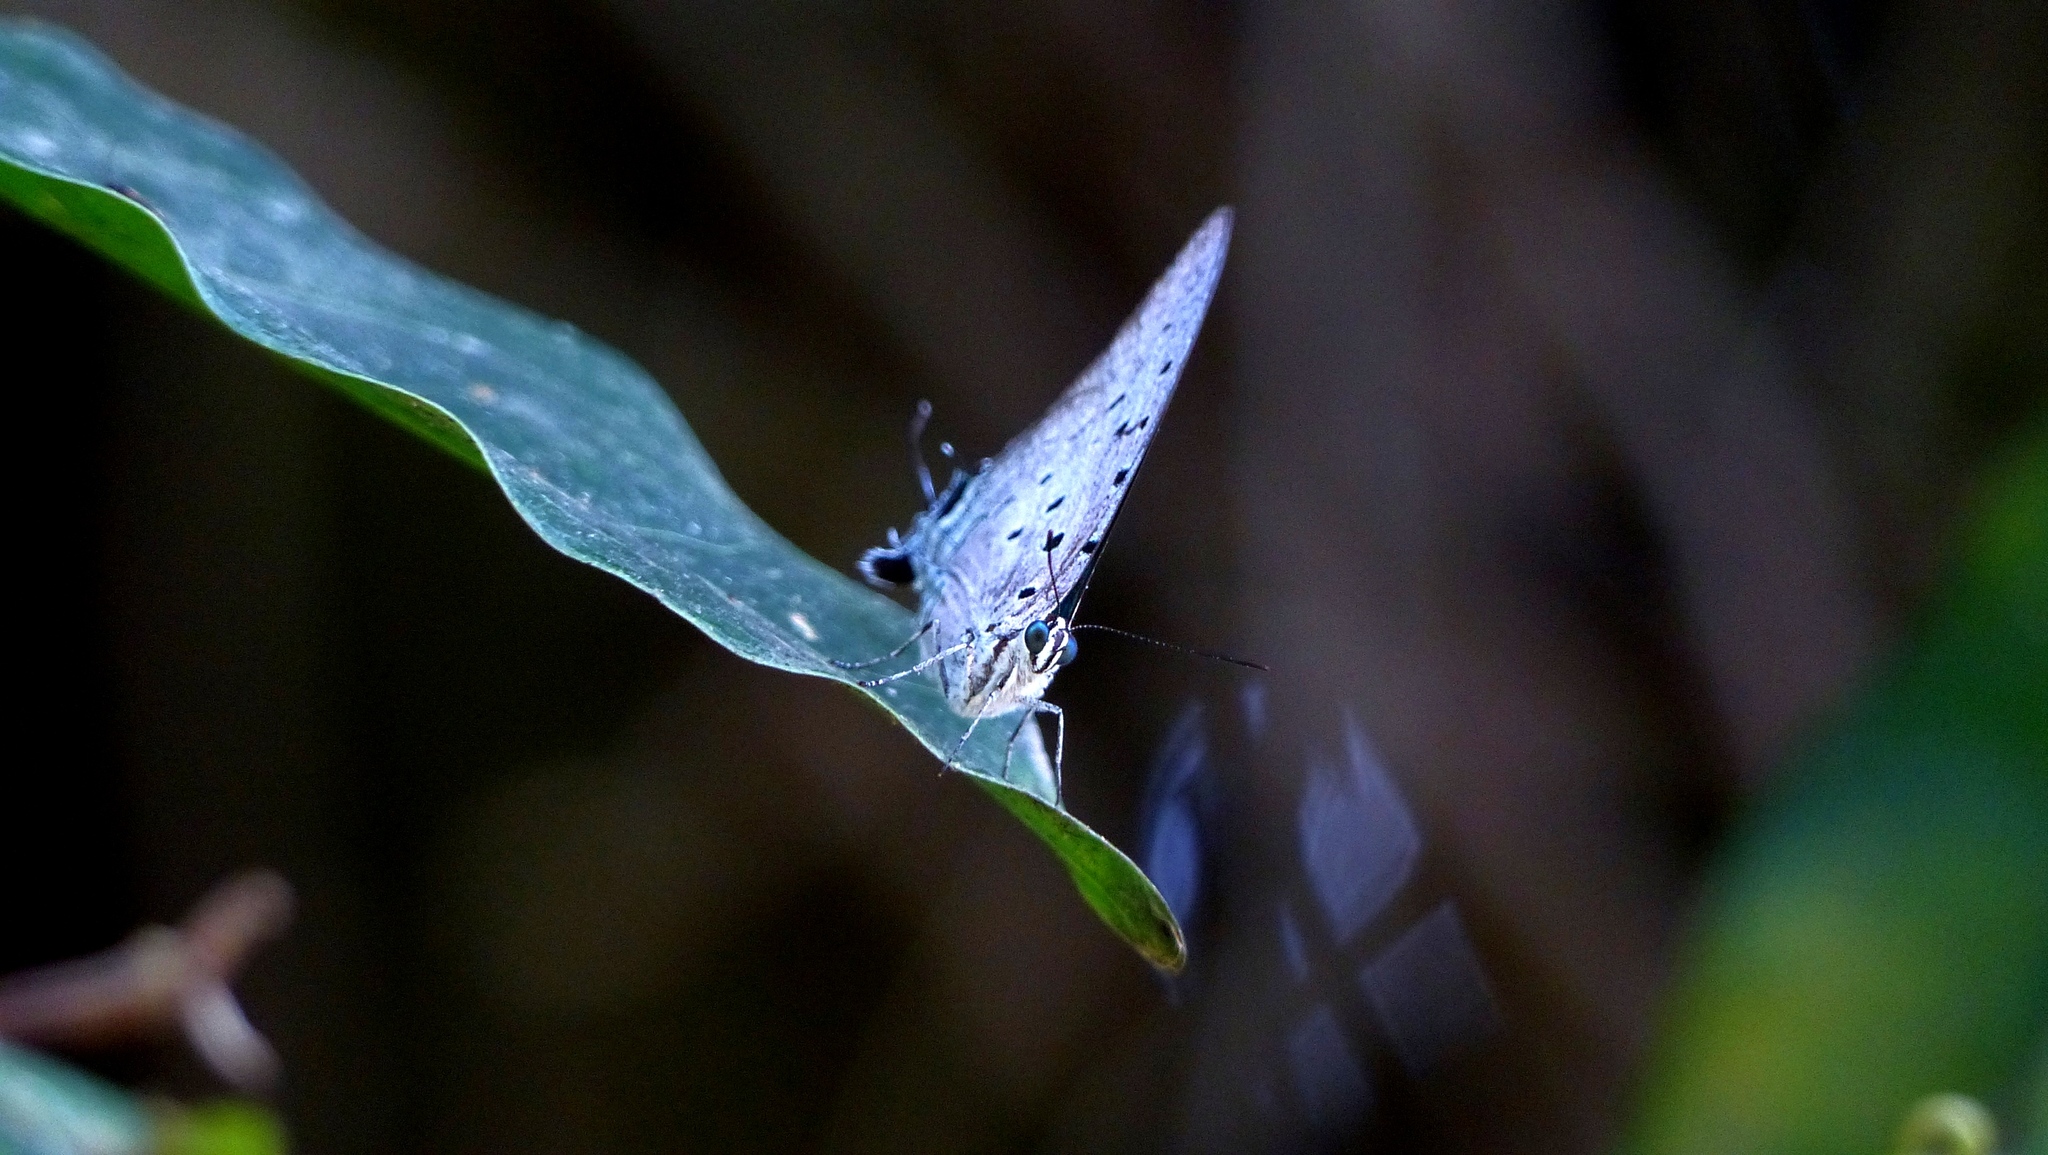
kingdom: Animalia
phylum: Arthropoda
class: Insecta
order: Lepidoptera
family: Lycaenidae
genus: Pseudolycaena
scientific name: Pseudolycaena marsyas
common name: Marsyas hairstreak
